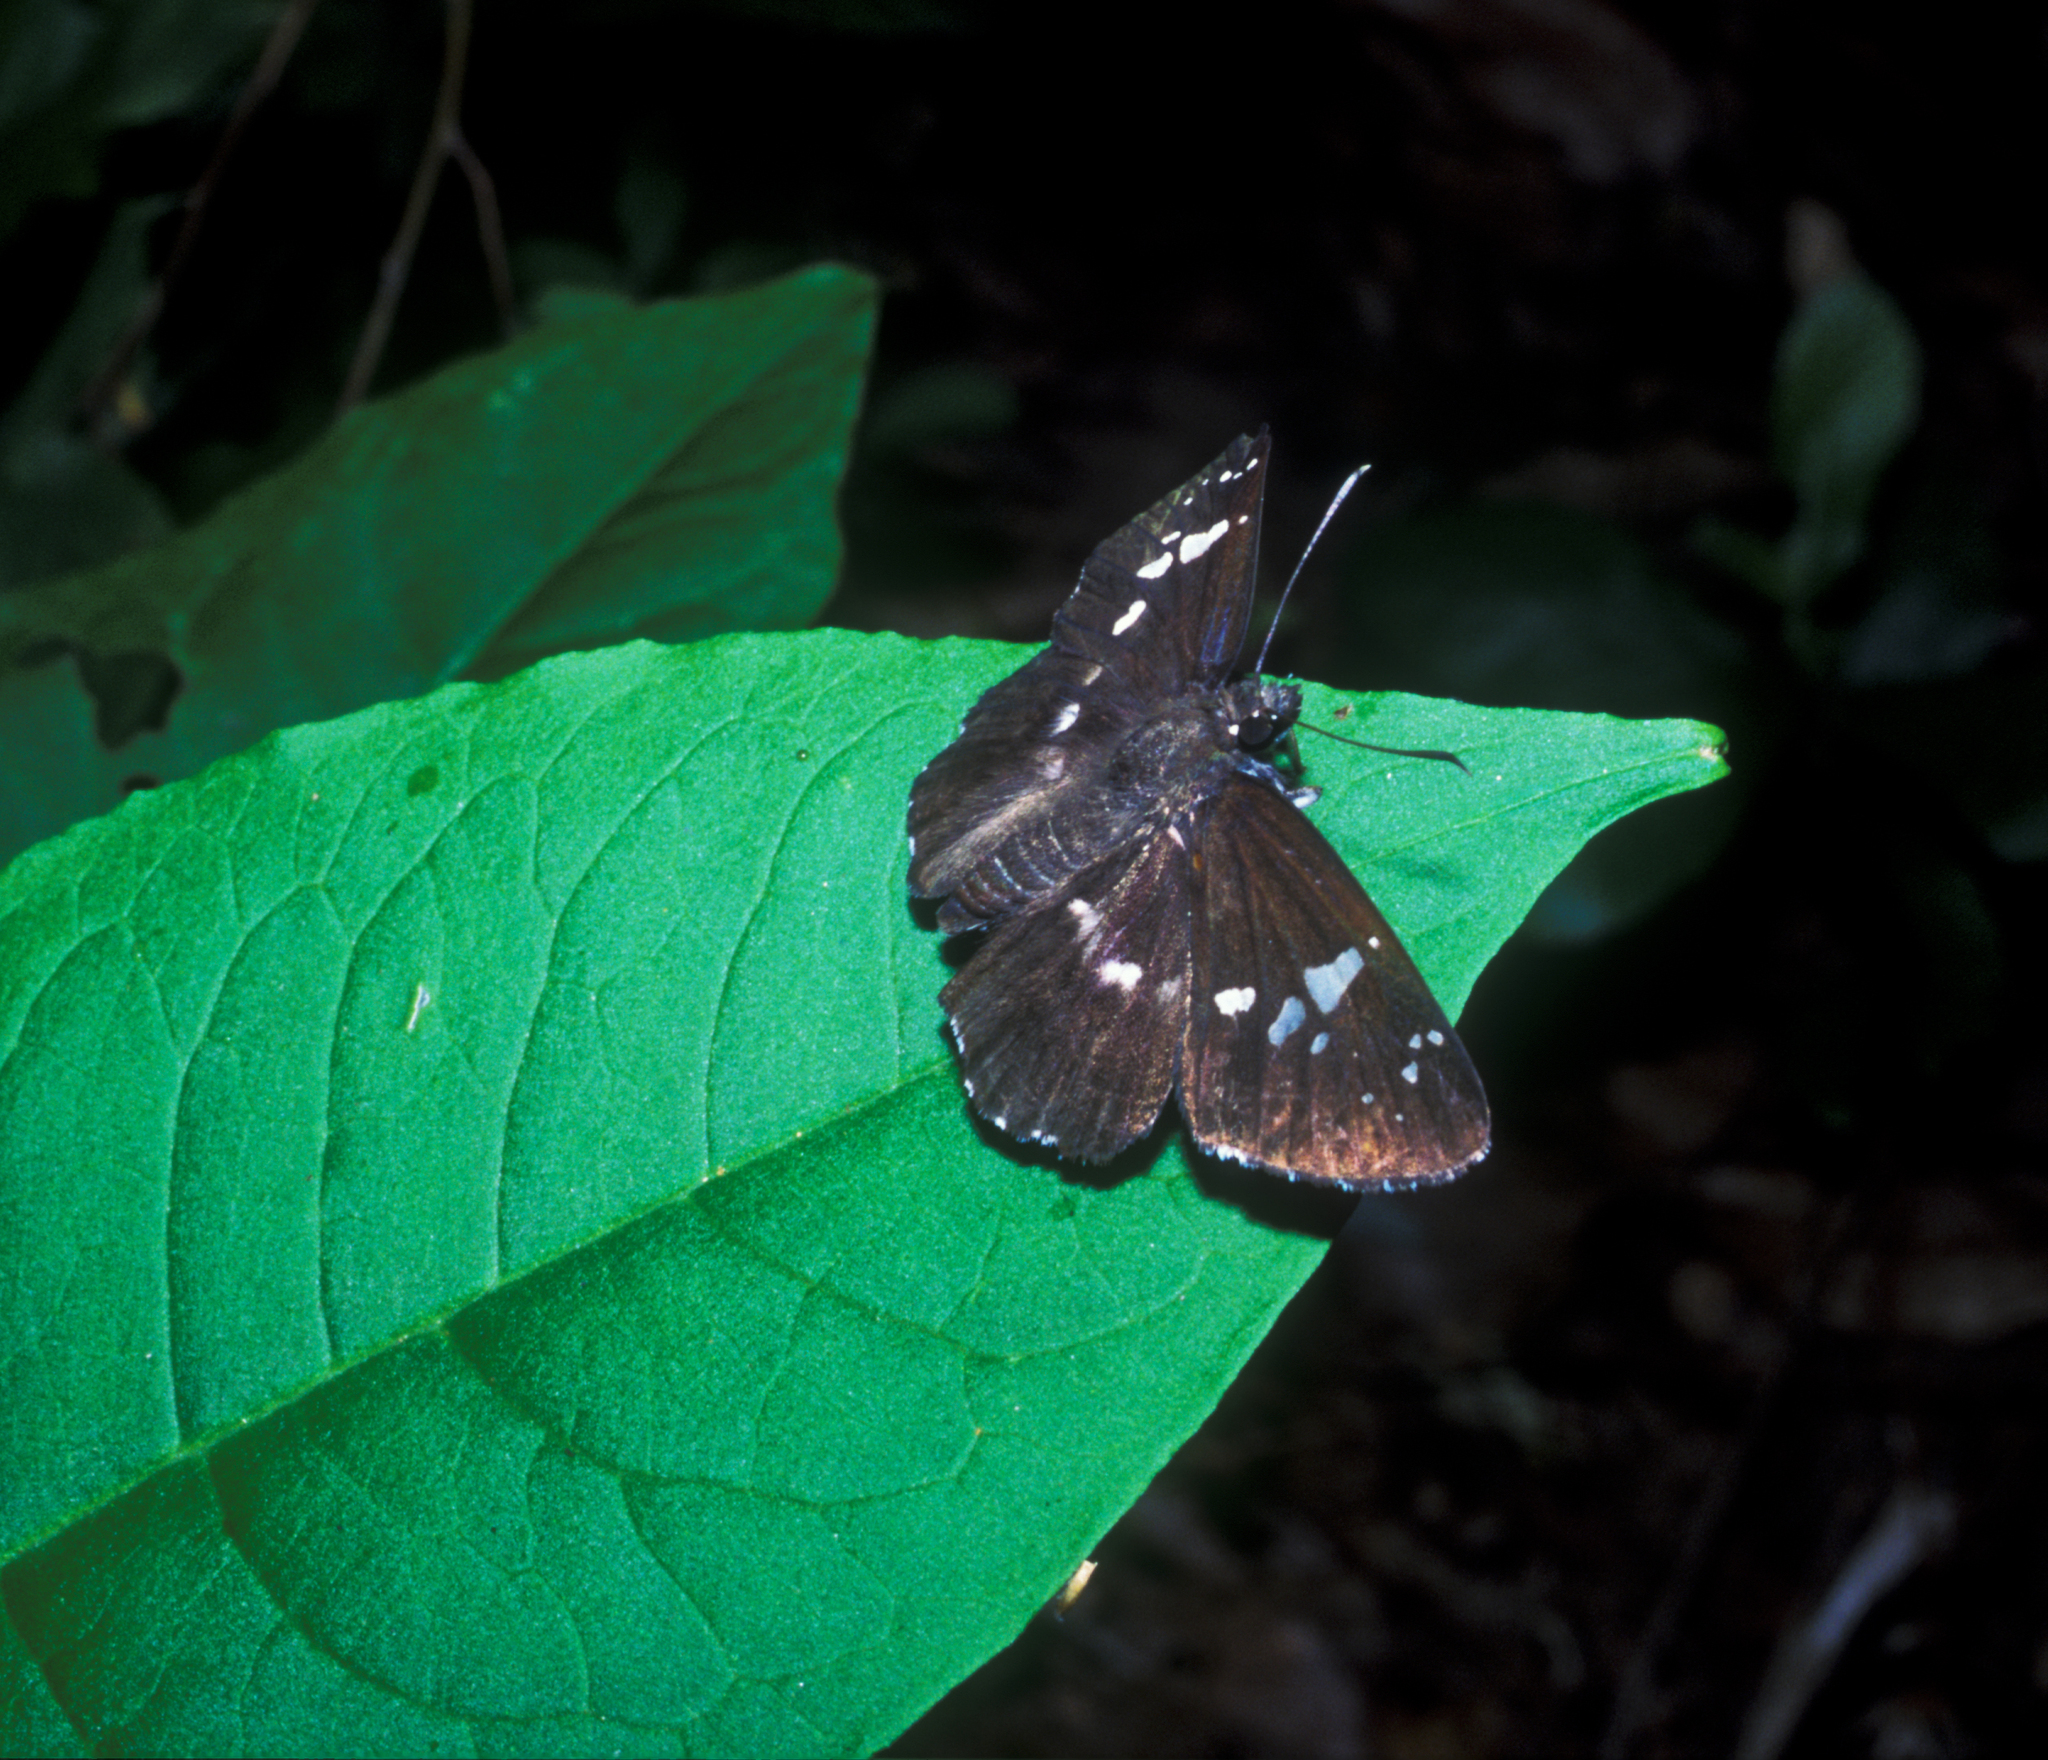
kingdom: Animalia
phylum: Arthropoda
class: Insecta
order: Lepidoptera
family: Hesperiidae
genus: Daimio
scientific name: Daimio tethys
